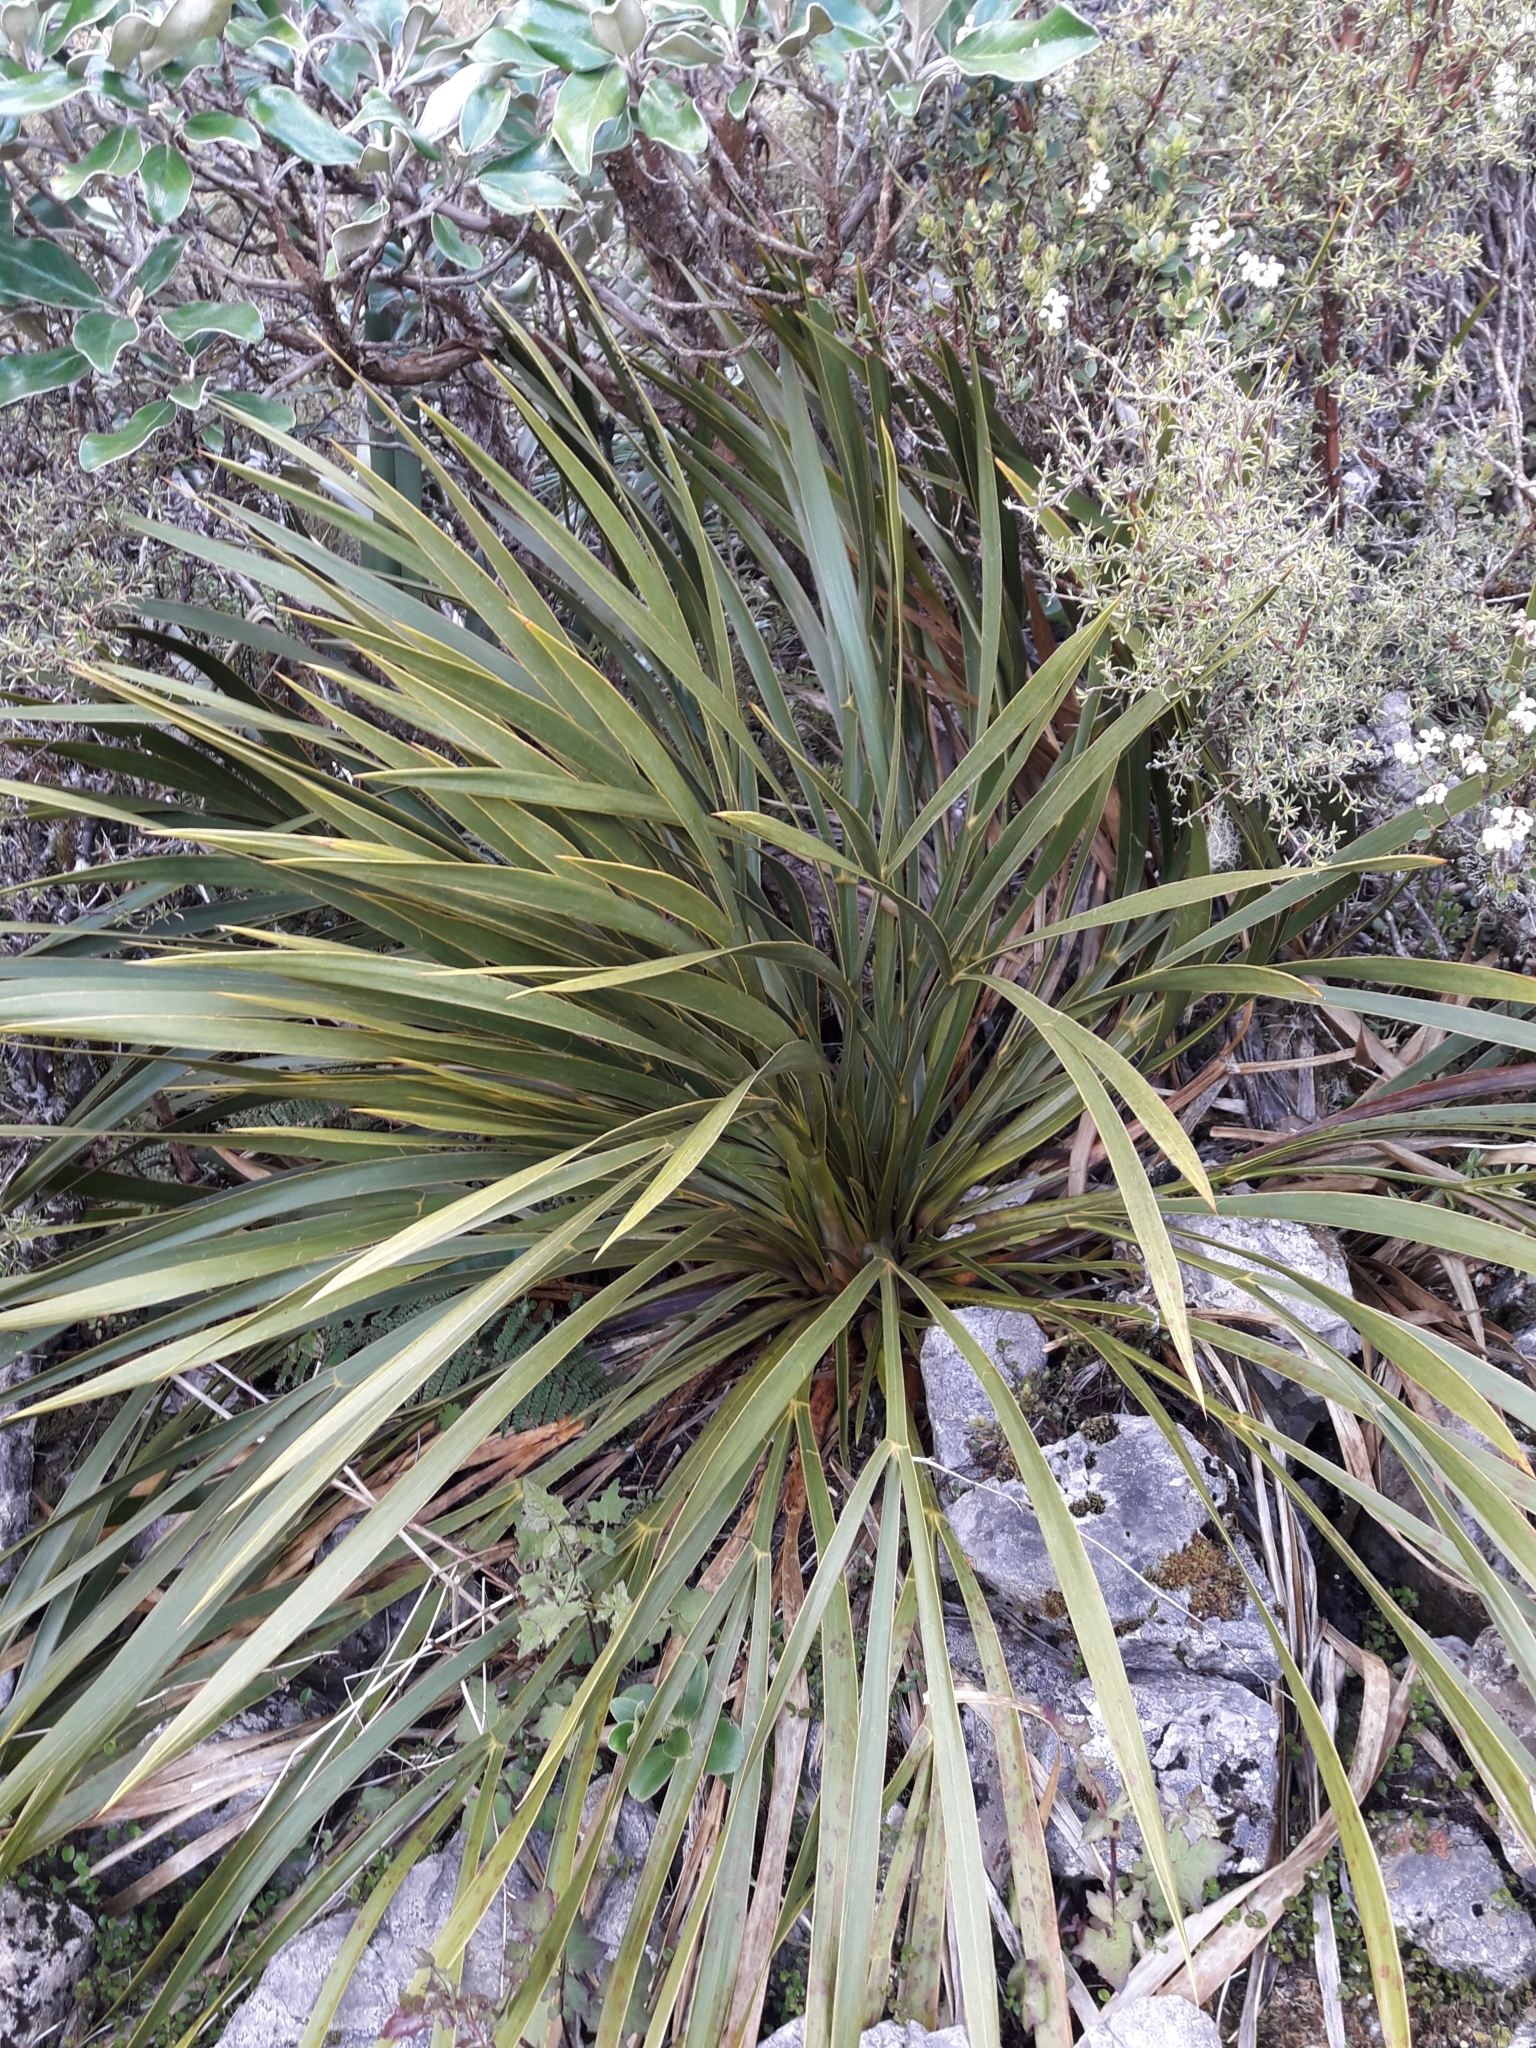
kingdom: Plantae
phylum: Tracheophyta
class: Magnoliopsida
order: Apiales
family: Apiaceae
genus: Aciphylla
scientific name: Aciphylla horrida
